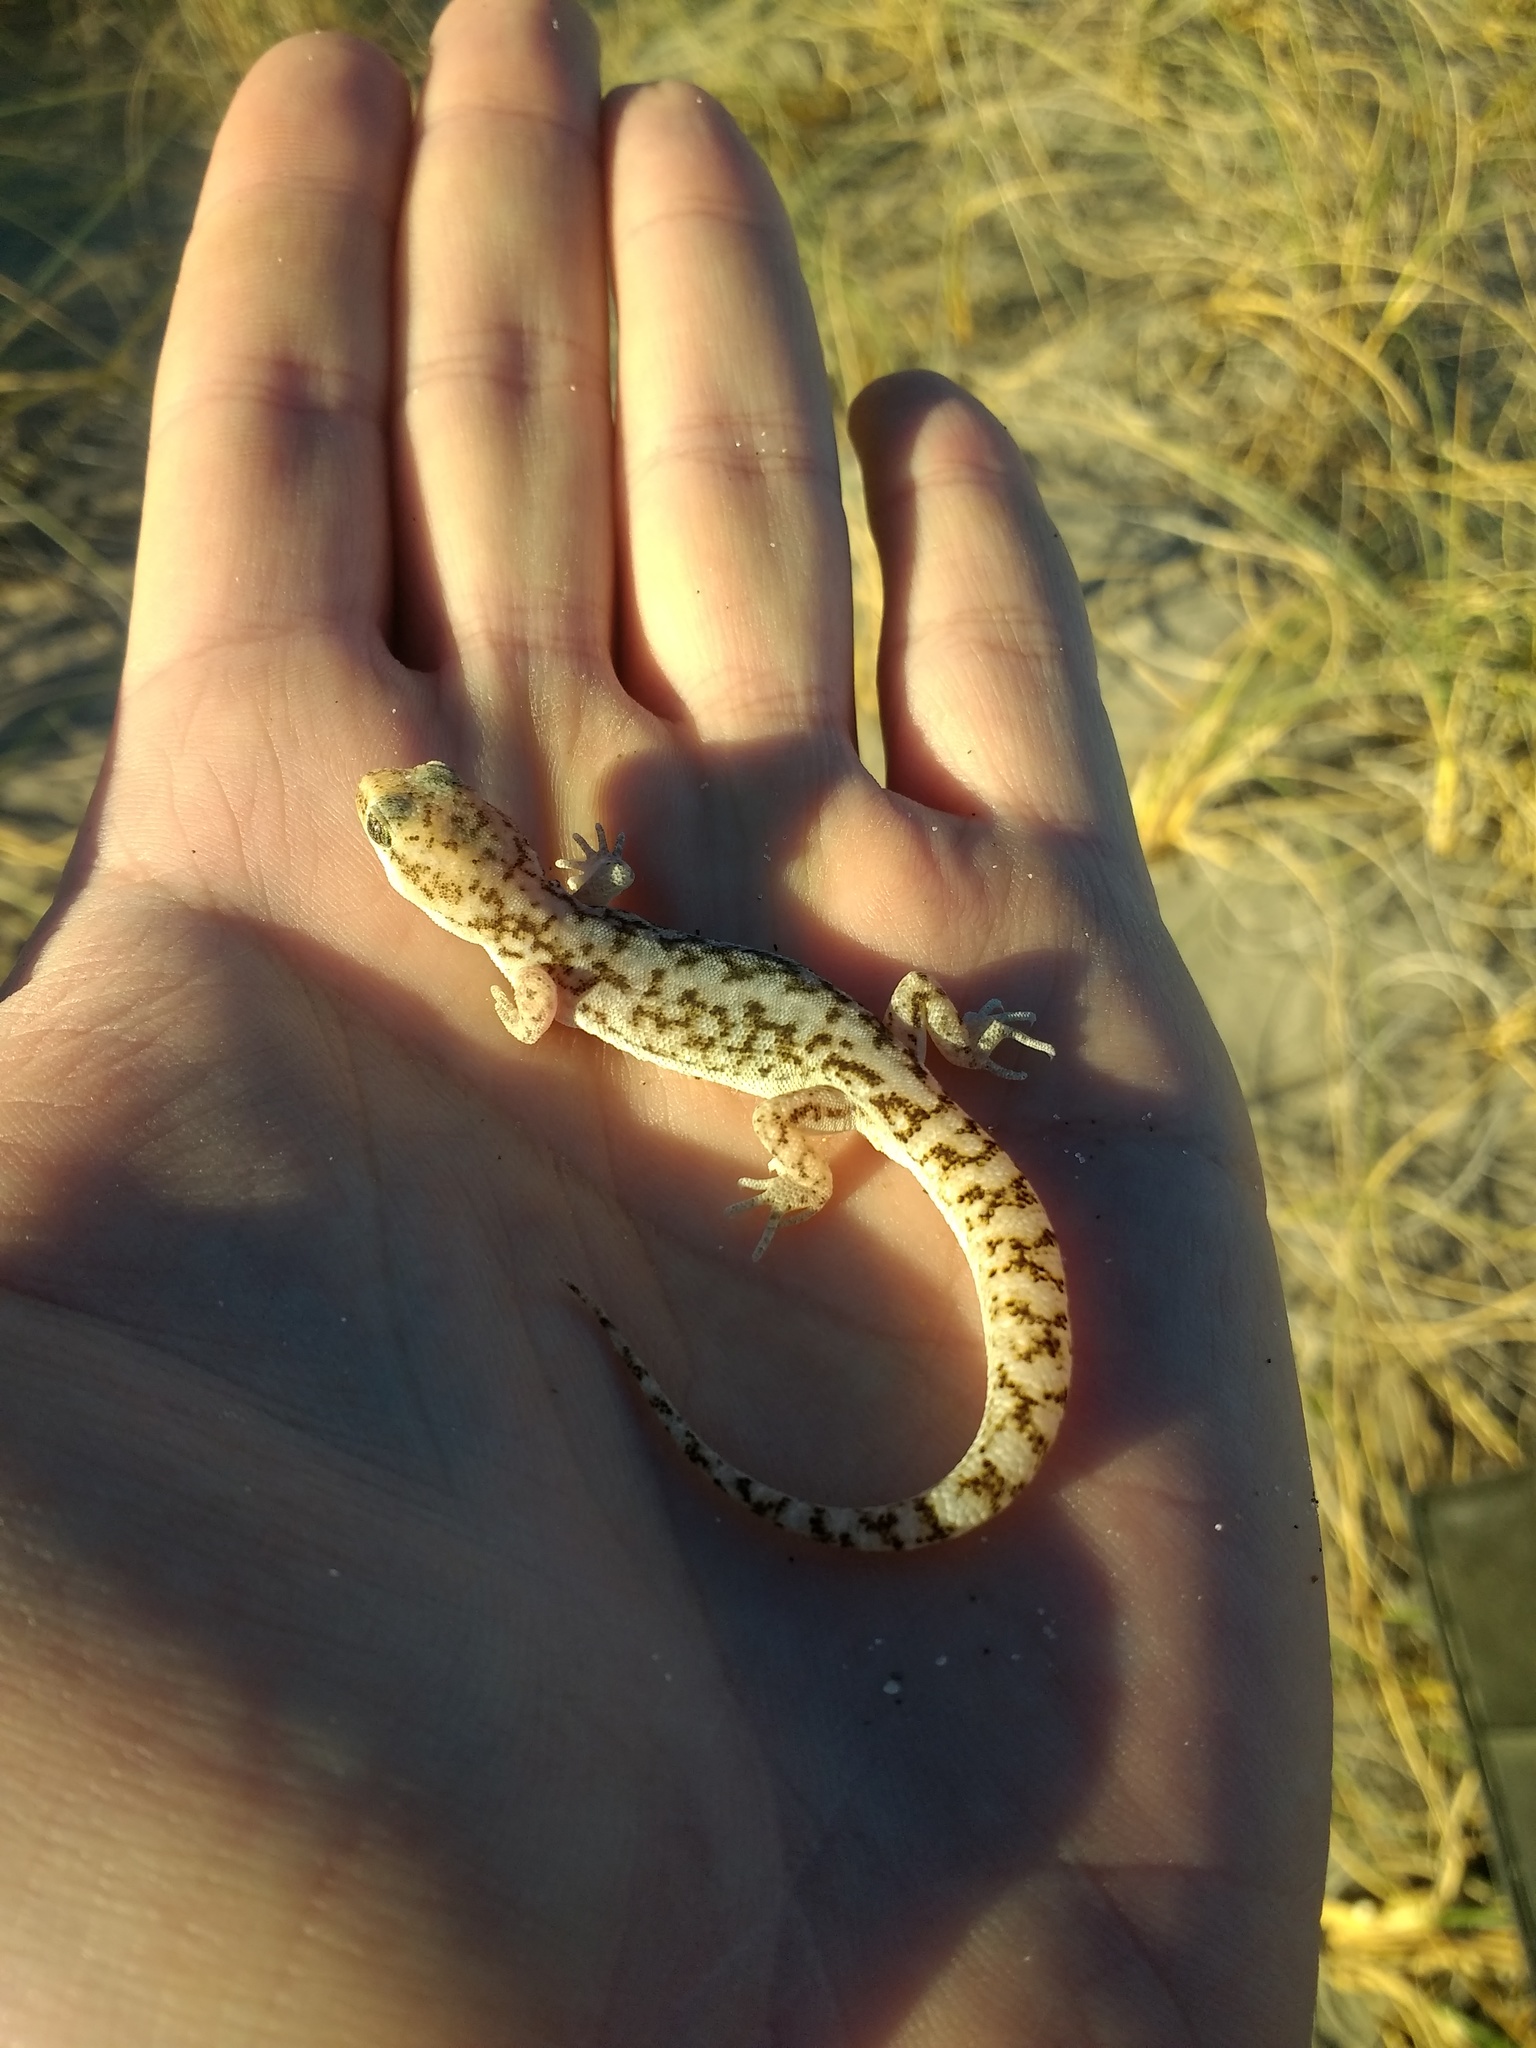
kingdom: Animalia
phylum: Chordata
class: Squamata
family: Phyllodactylidae
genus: Homonota
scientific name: Homonota darwinii
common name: Darwin's marked gecko
